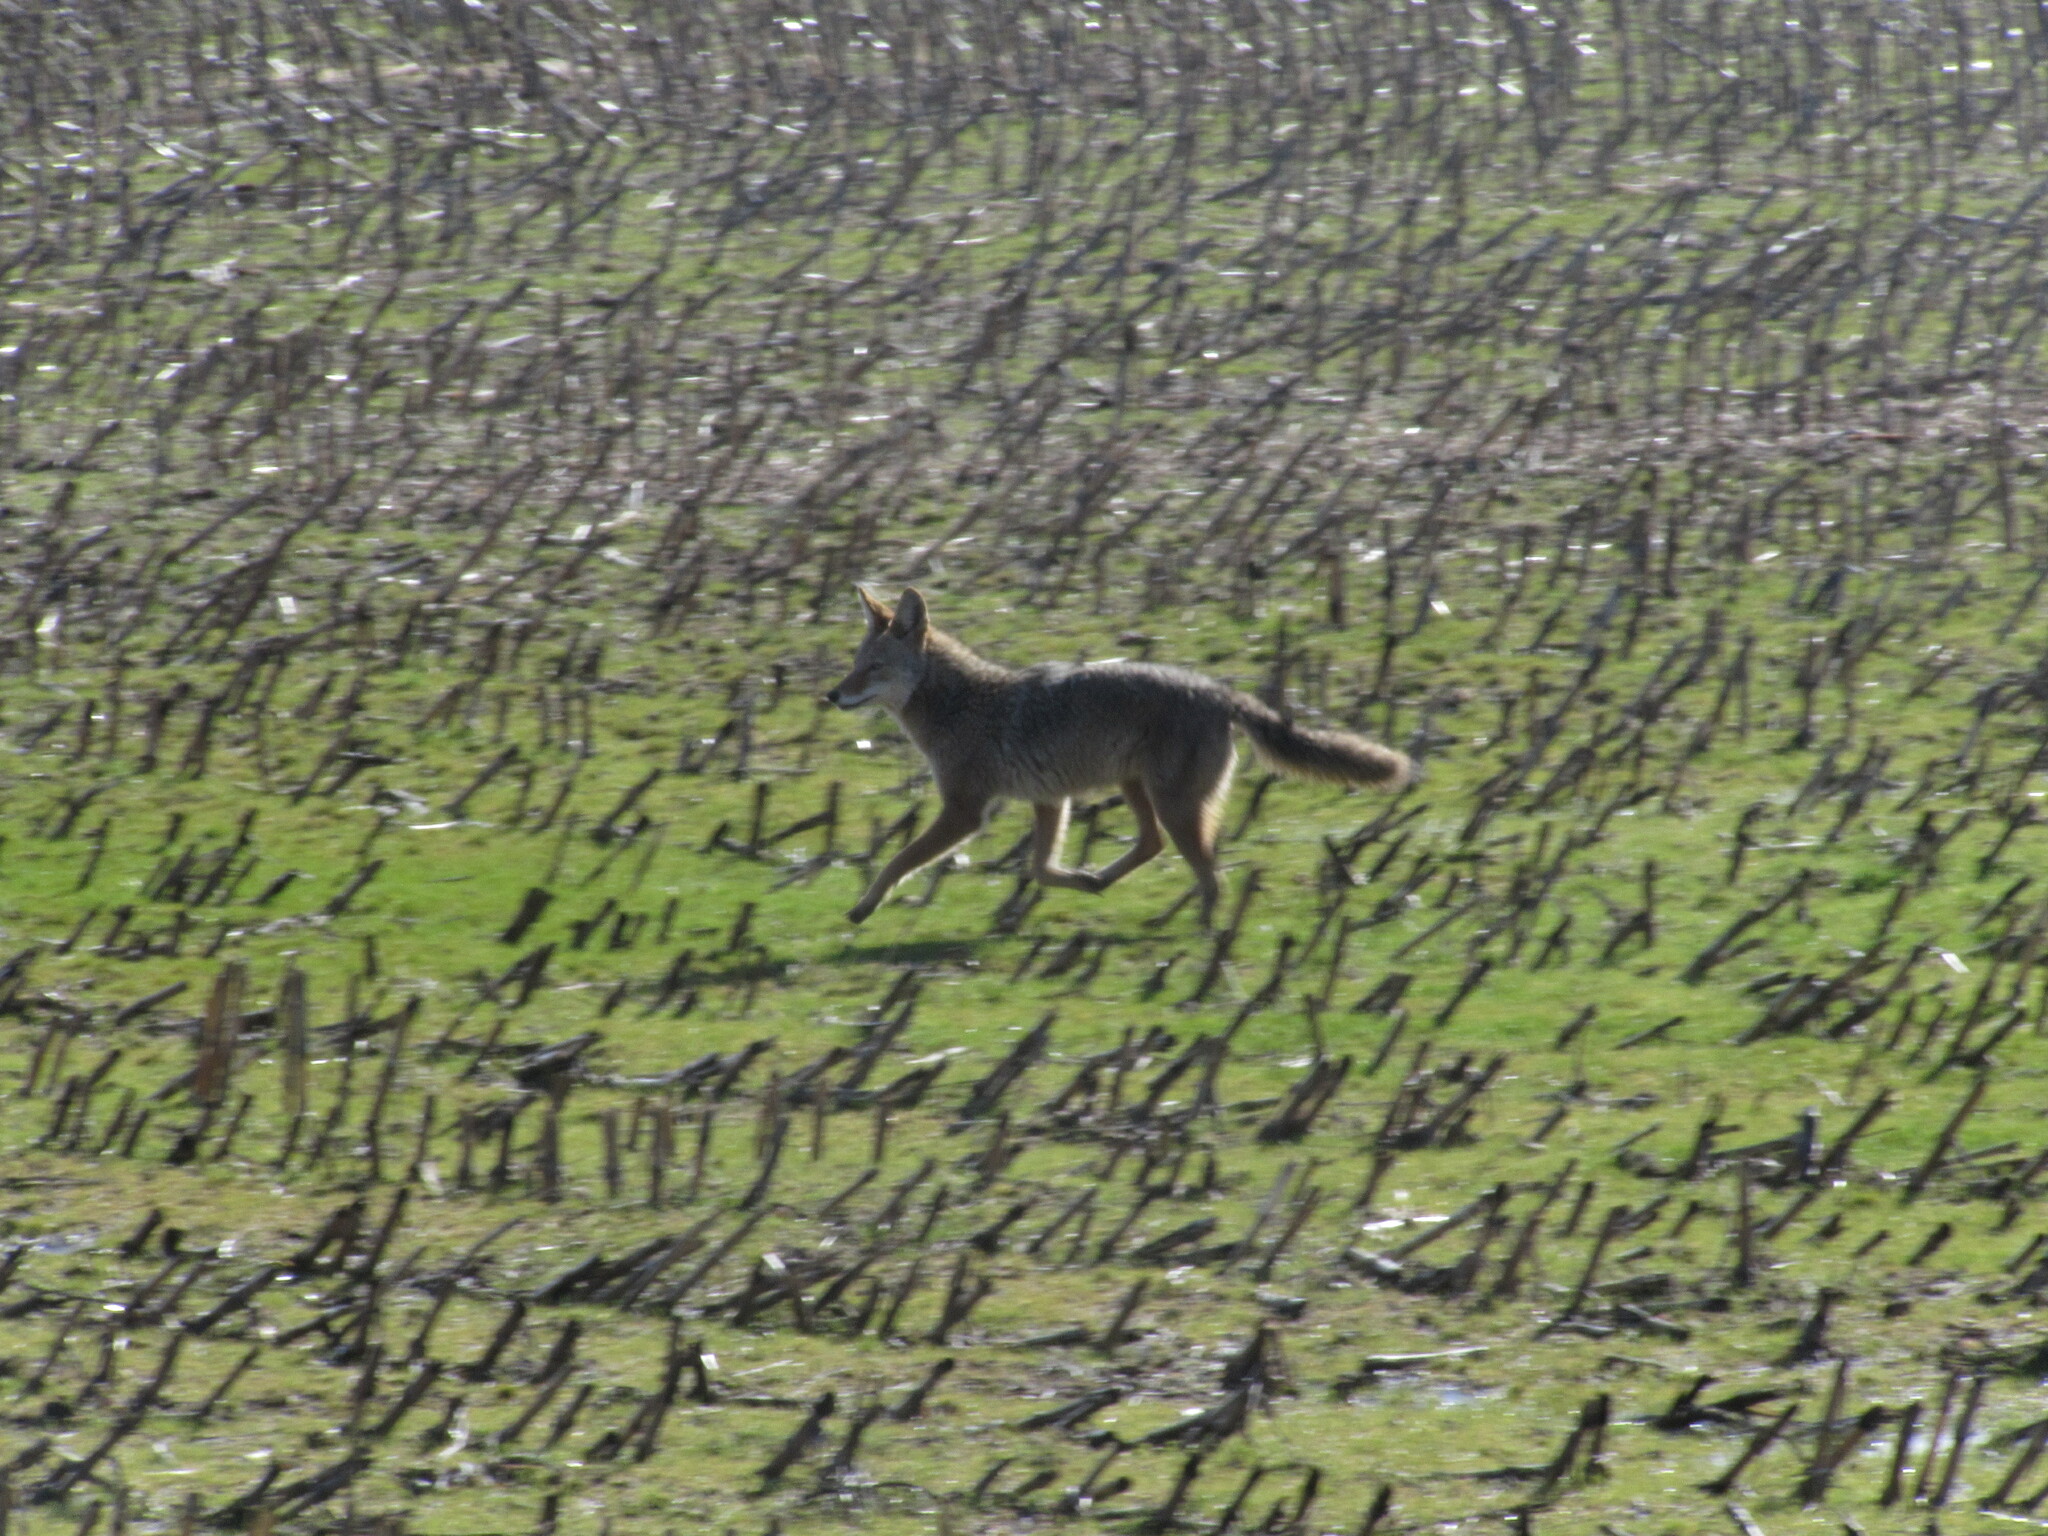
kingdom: Animalia
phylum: Chordata
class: Mammalia
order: Carnivora
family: Canidae
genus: Canis
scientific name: Canis latrans
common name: Coyote
